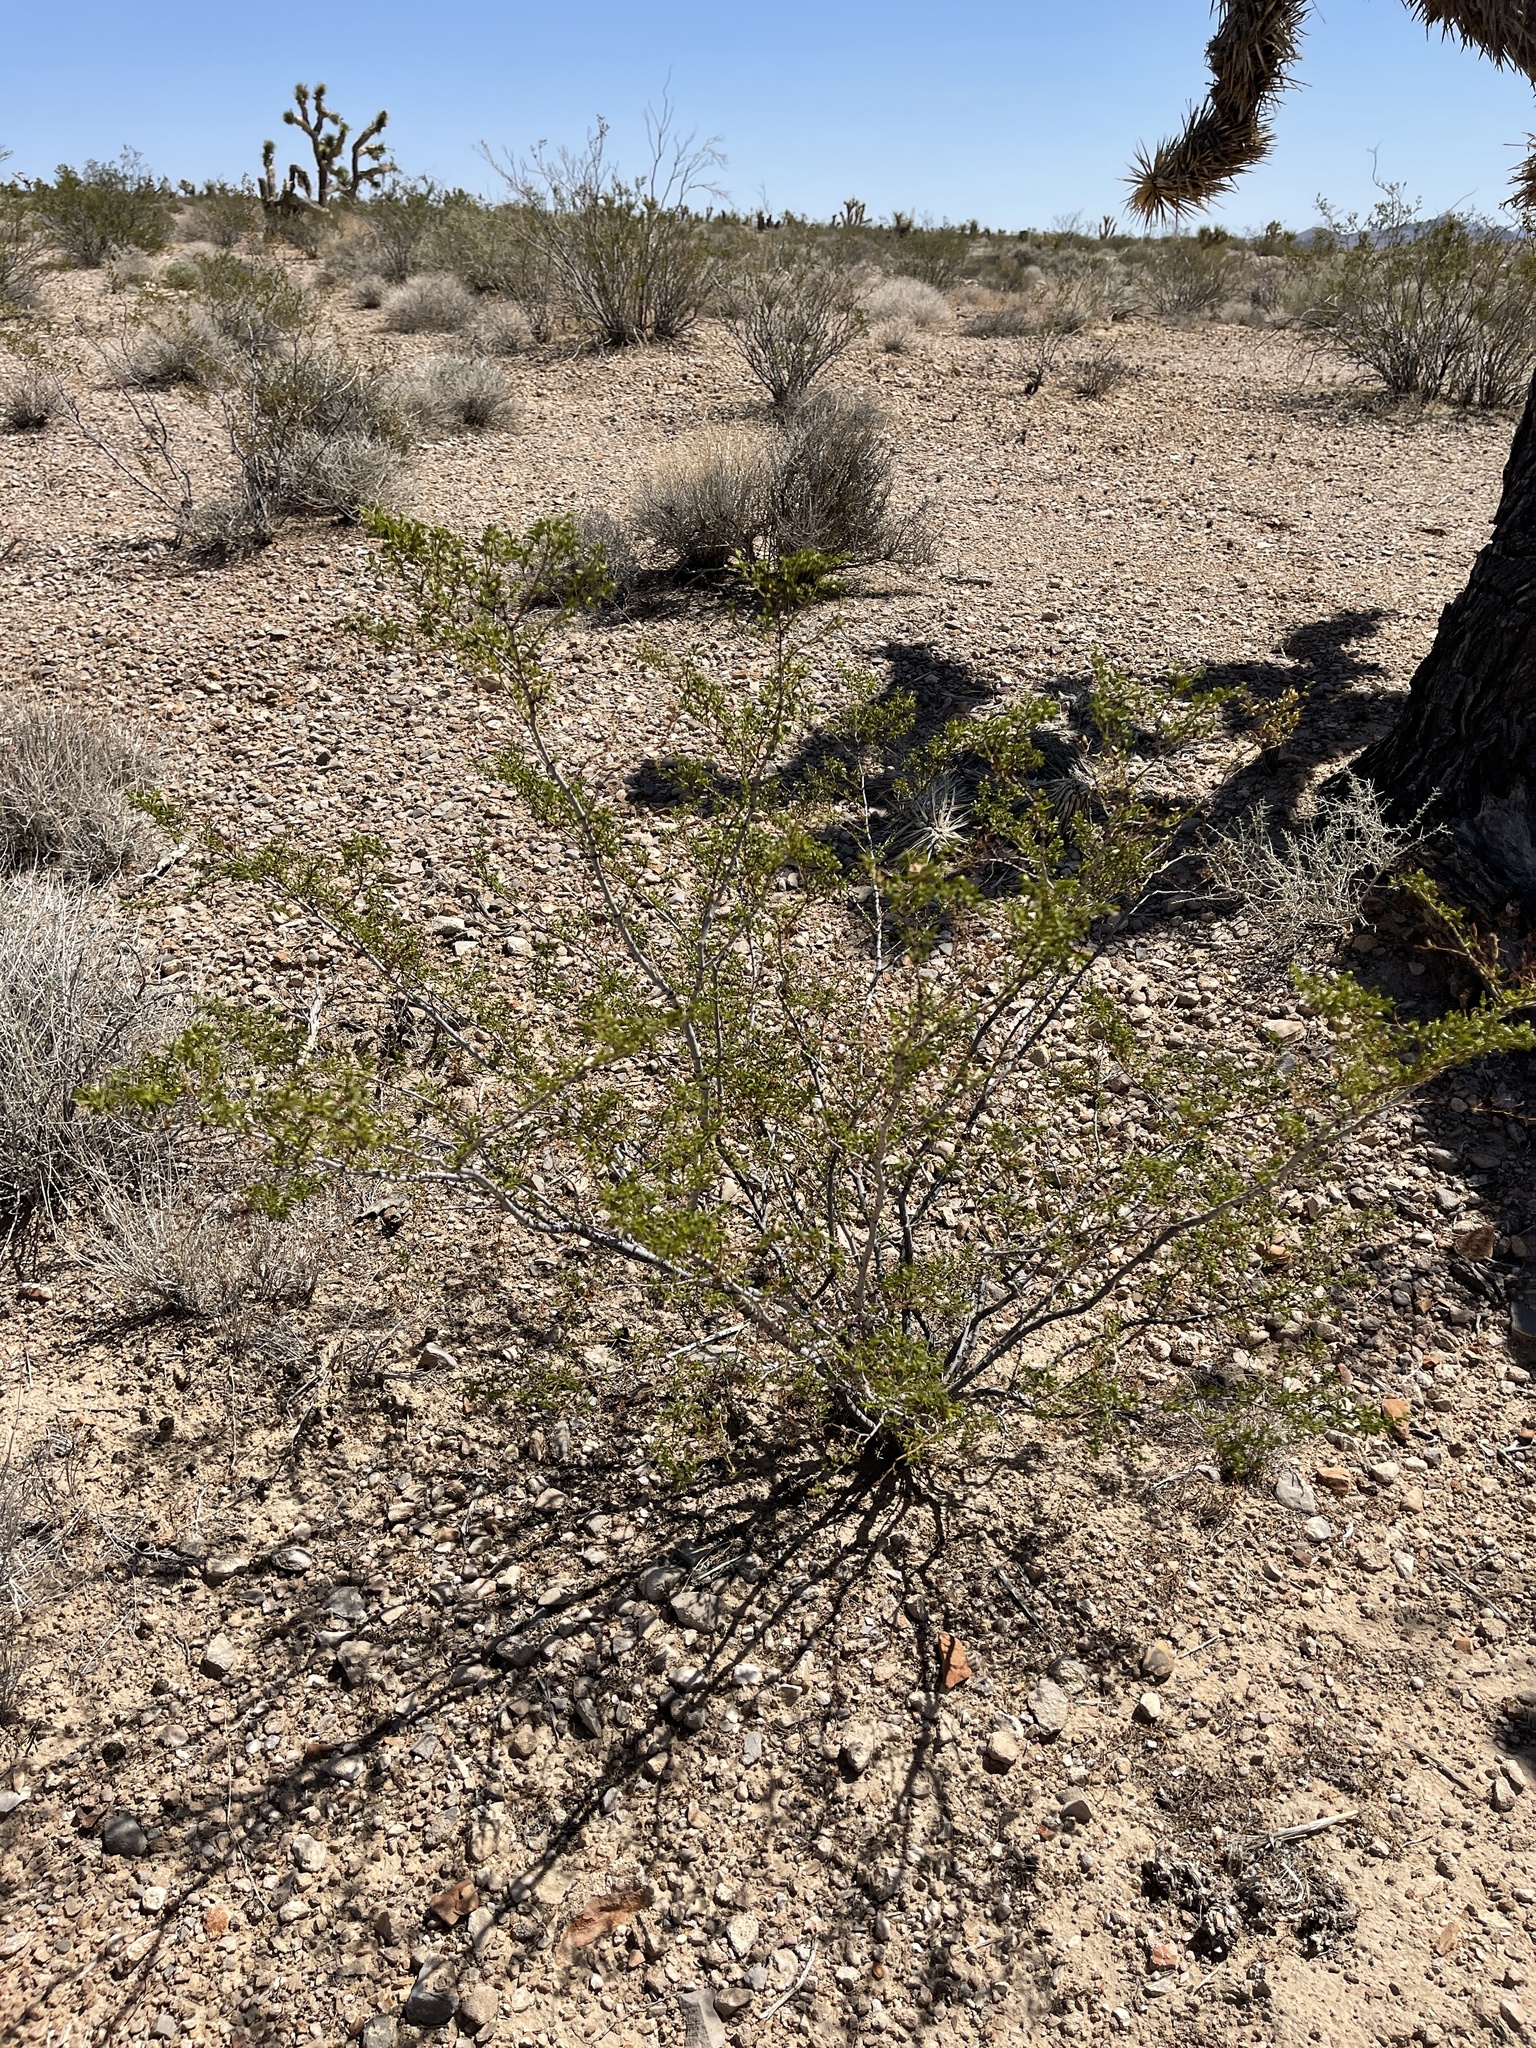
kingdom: Plantae
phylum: Tracheophyta
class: Magnoliopsida
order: Zygophyllales
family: Zygophyllaceae
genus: Larrea
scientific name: Larrea tridentata
